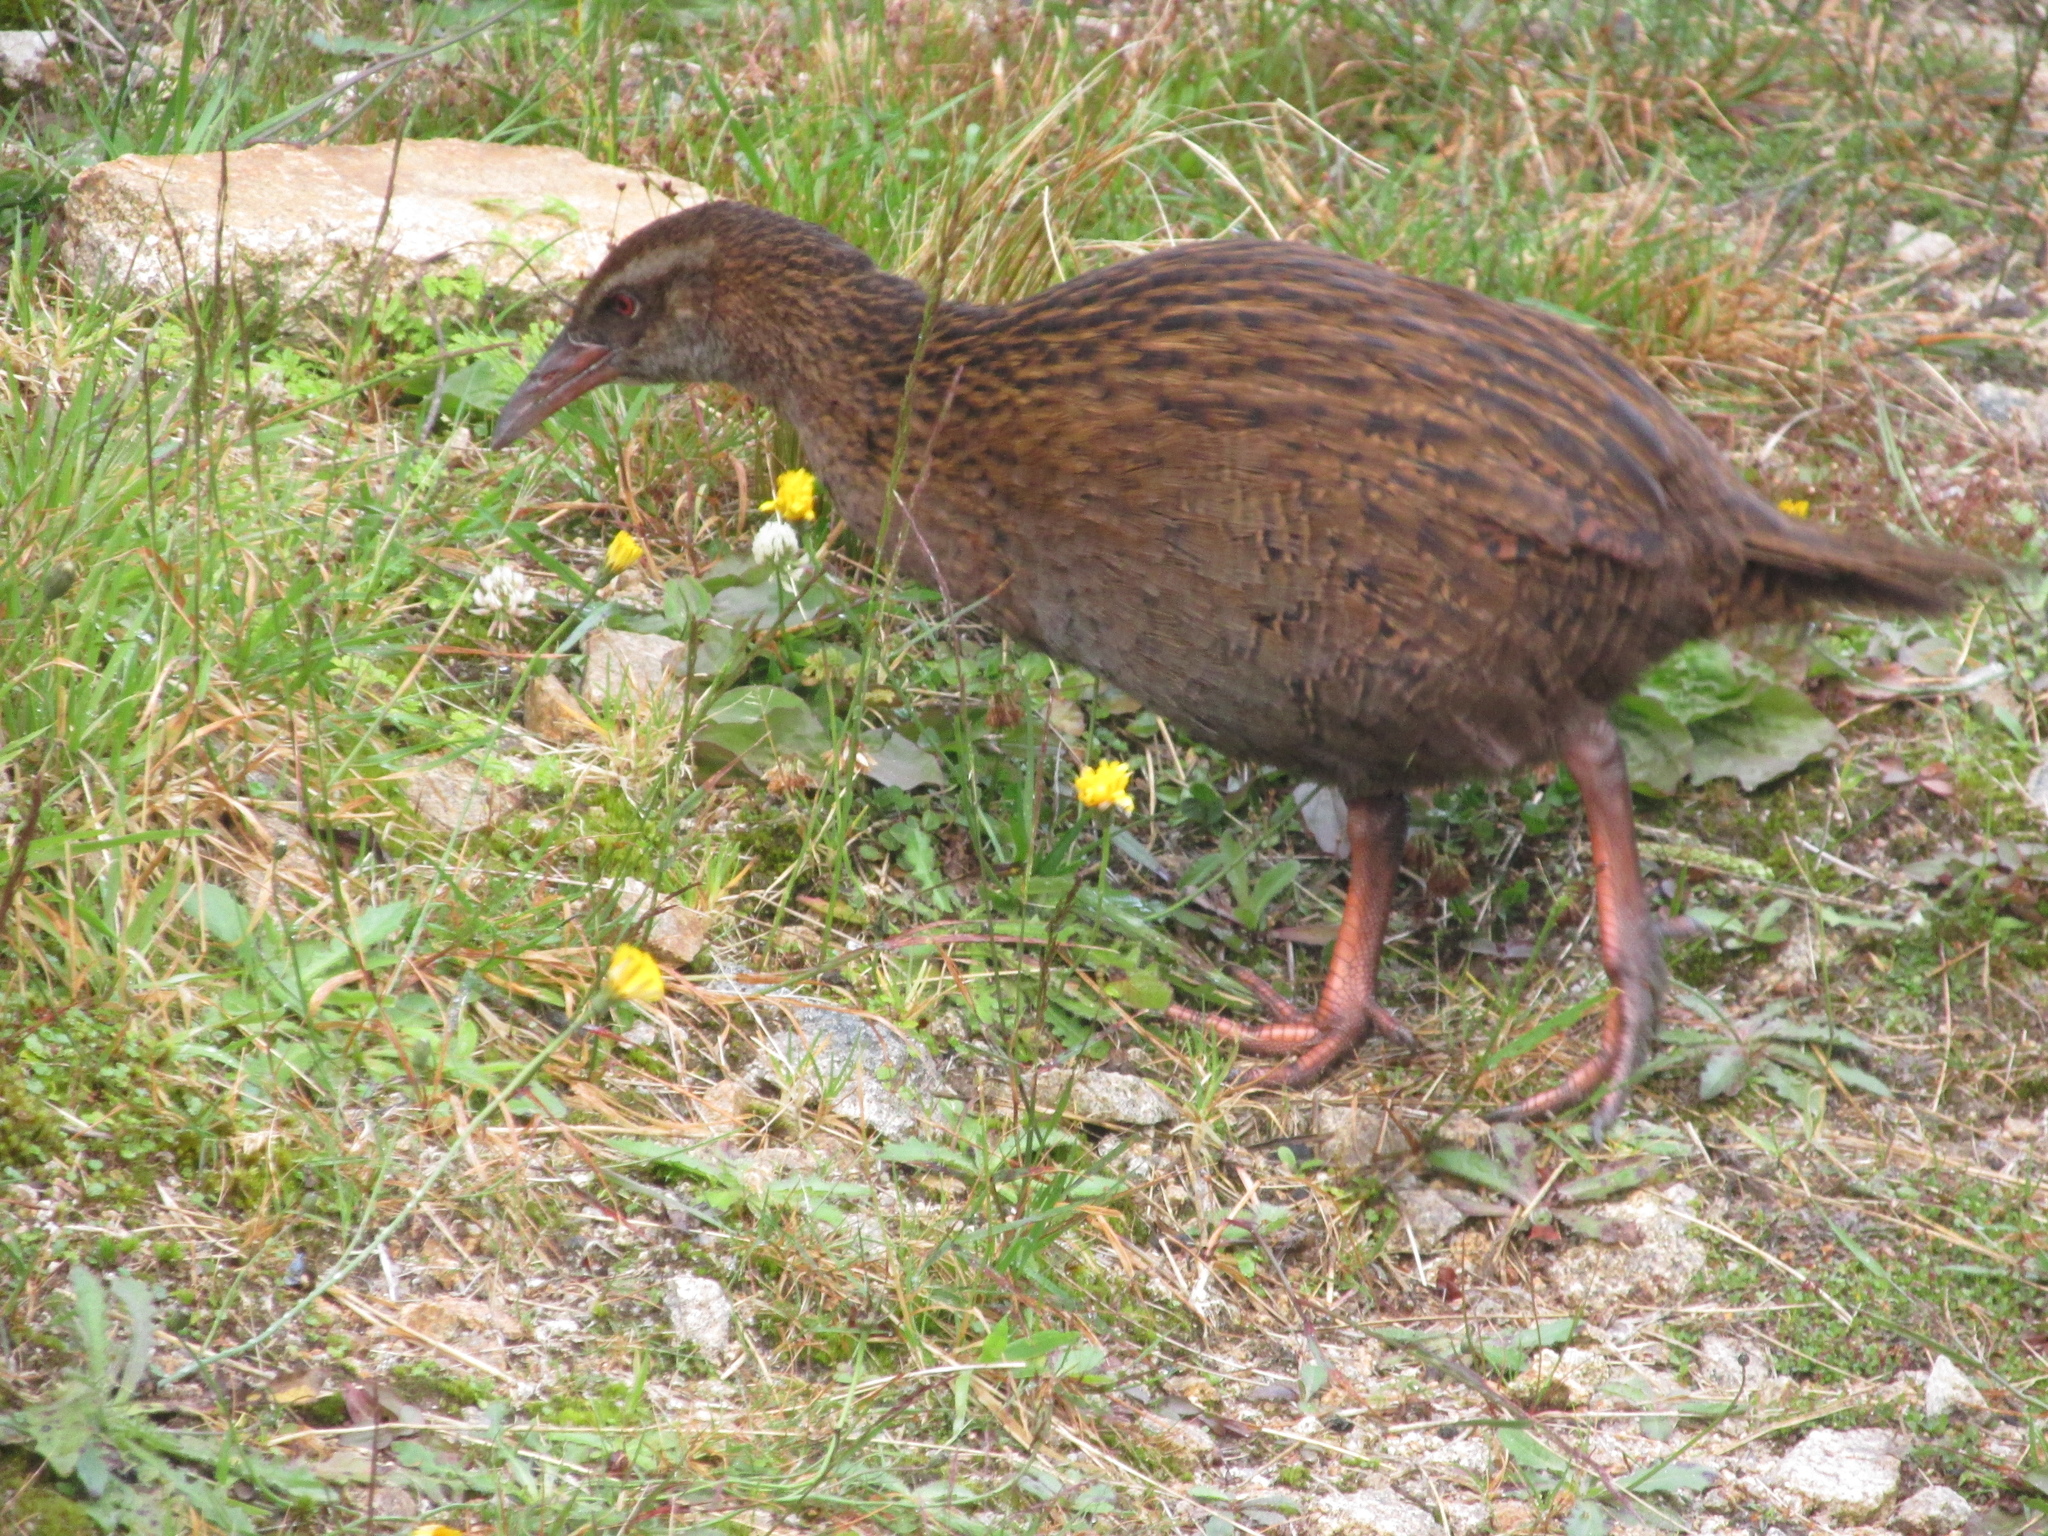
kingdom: Animalia
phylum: Chordata
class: Aves
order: Gruiformes
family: Rallidae
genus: Gallirallus
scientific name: Gallirallus australis
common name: Weka
